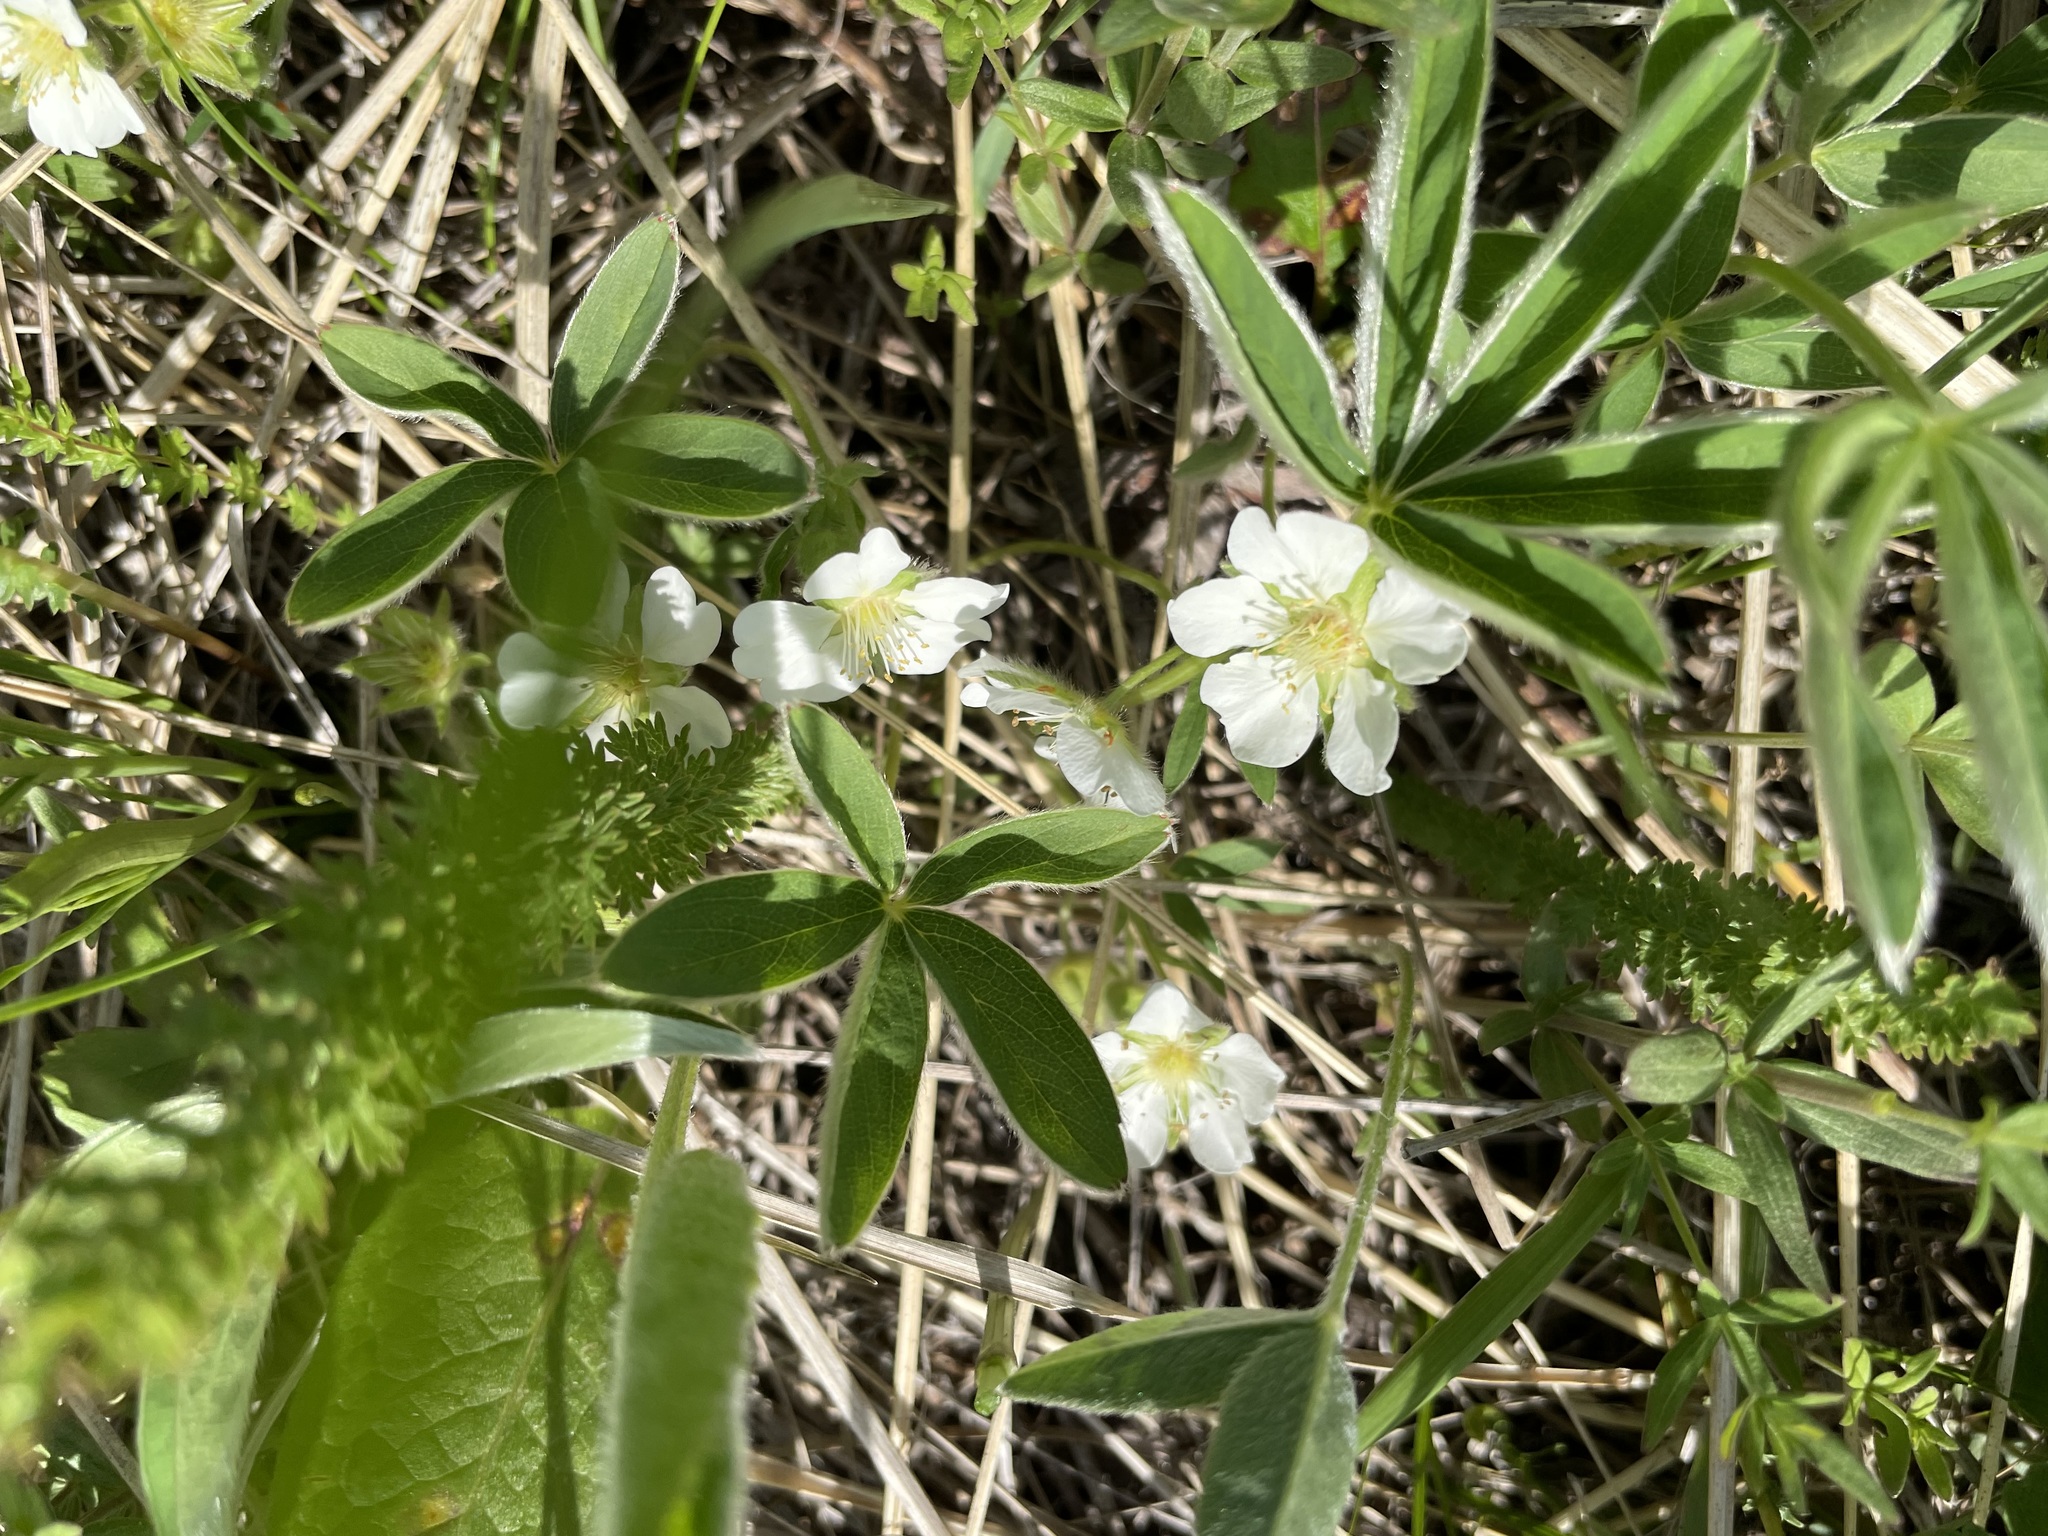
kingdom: Plantae
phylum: Tracheophyta
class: Magnoliopsida
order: Rosales
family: Rosaceae
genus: Potentilla
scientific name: Potentilla alba
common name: White cinquefoil
